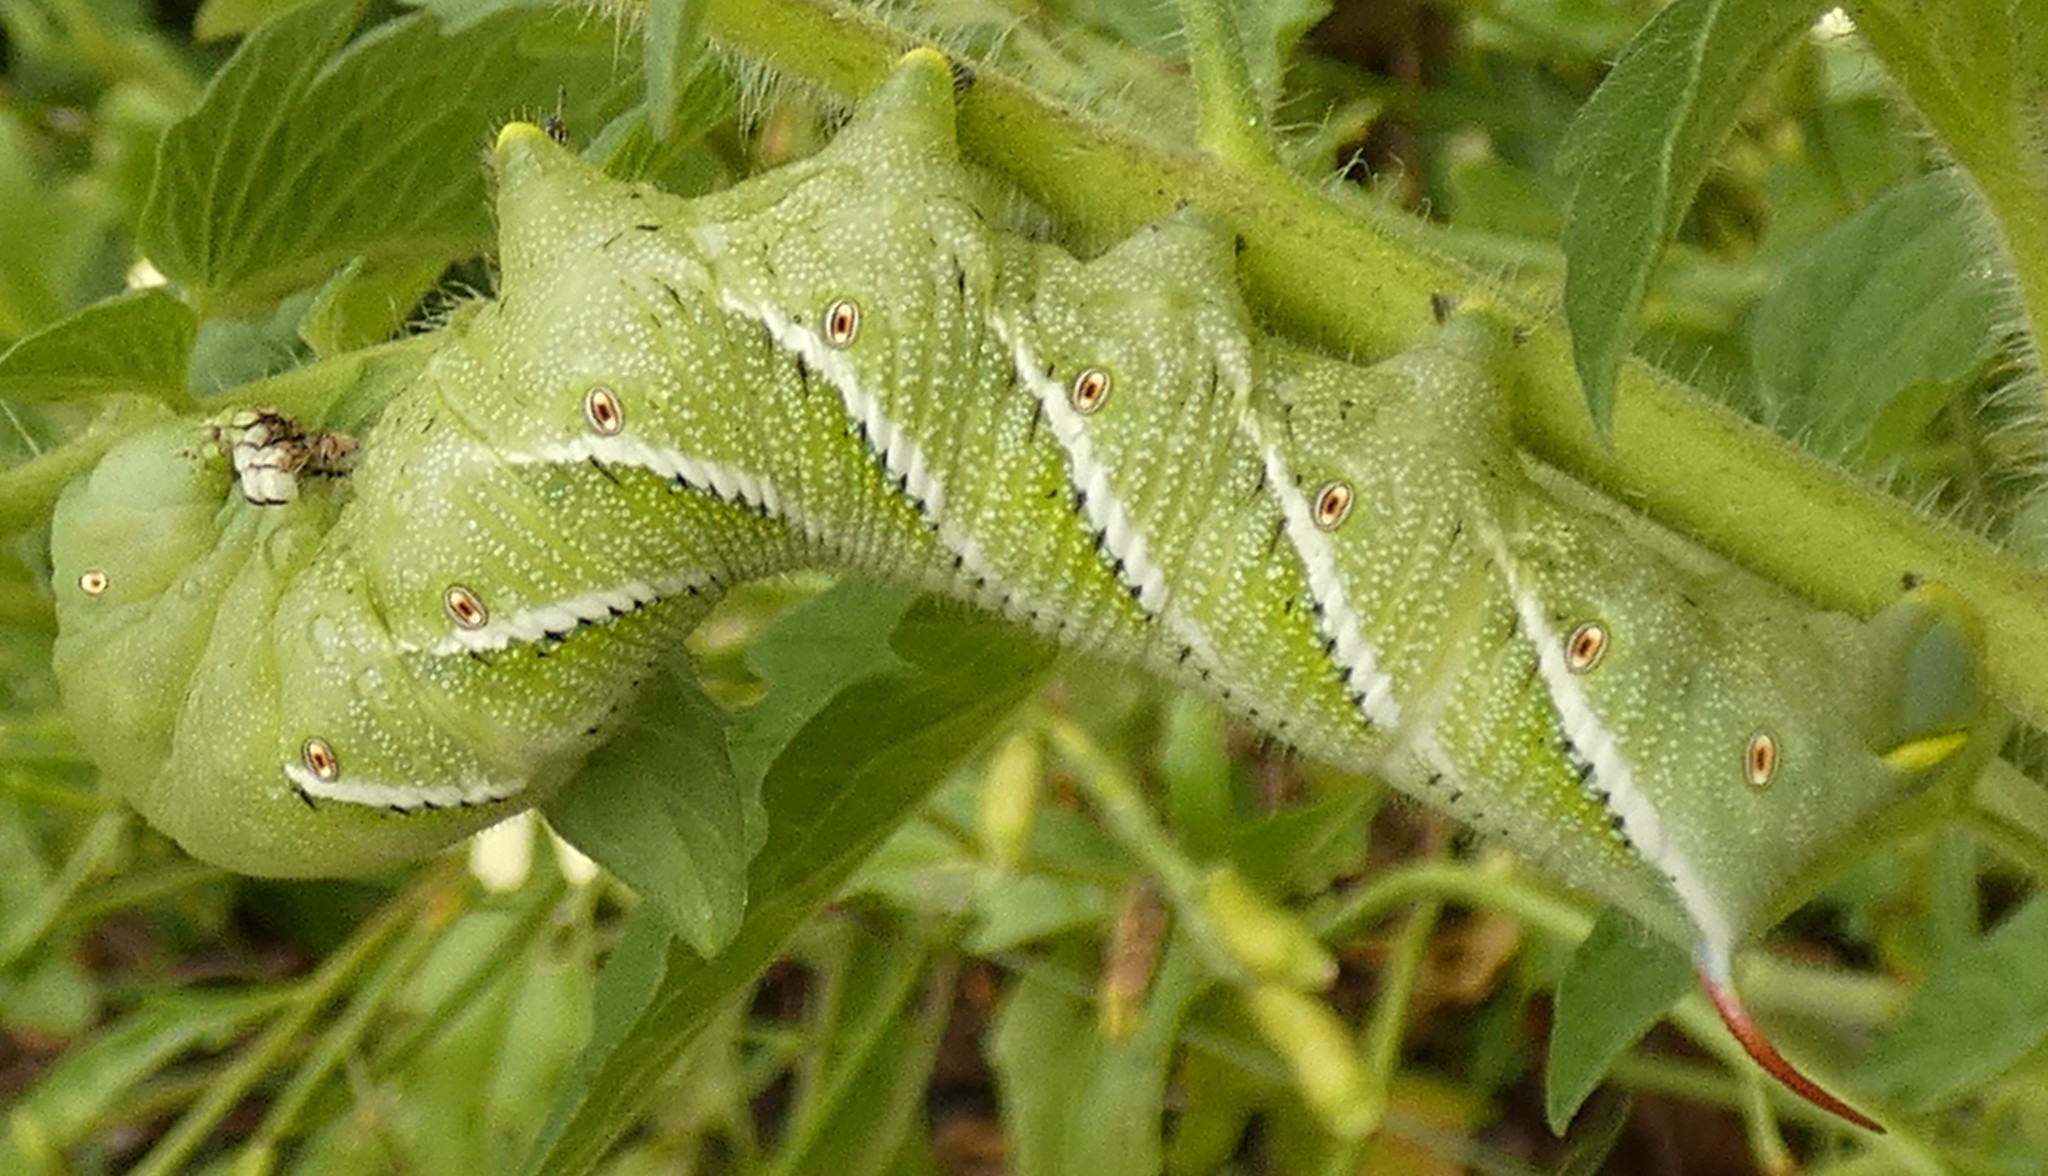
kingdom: Animalia
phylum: Arthropoda
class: Insecta
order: Lepidoptera
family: Sphingidae
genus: Manduca
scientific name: Manduca sexta
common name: Carolina sphinx
